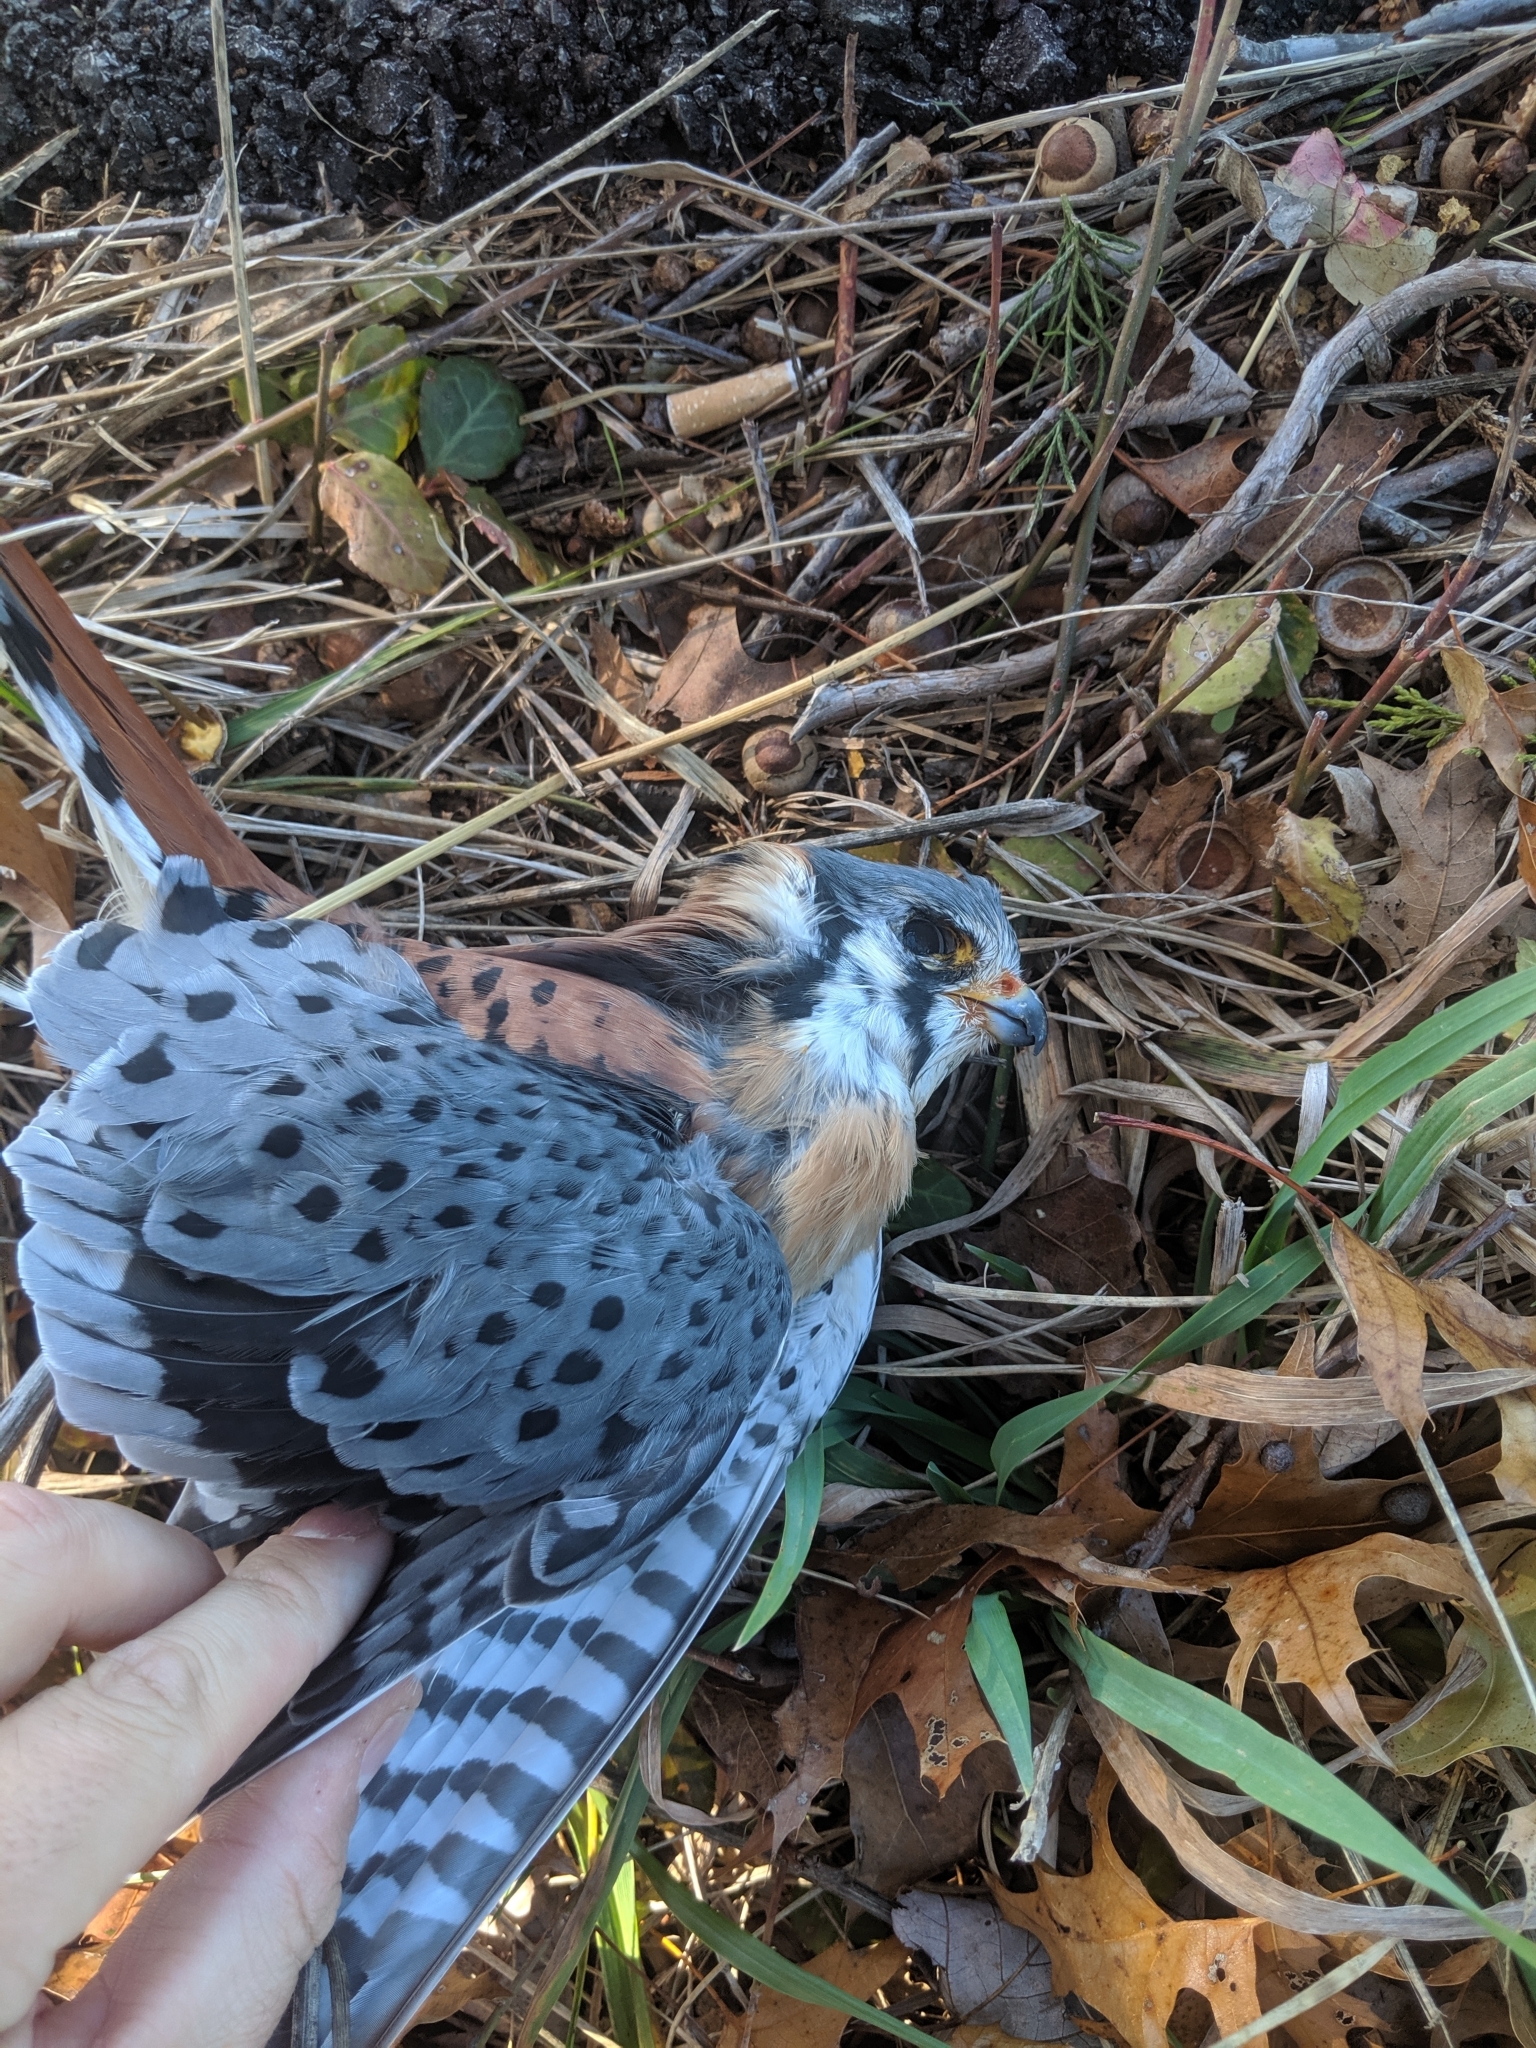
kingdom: Animalia
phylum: Chordata
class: Aves
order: Falconiformes
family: Falconidae
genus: Falco
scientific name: Falco sparverius
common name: American kestrel
